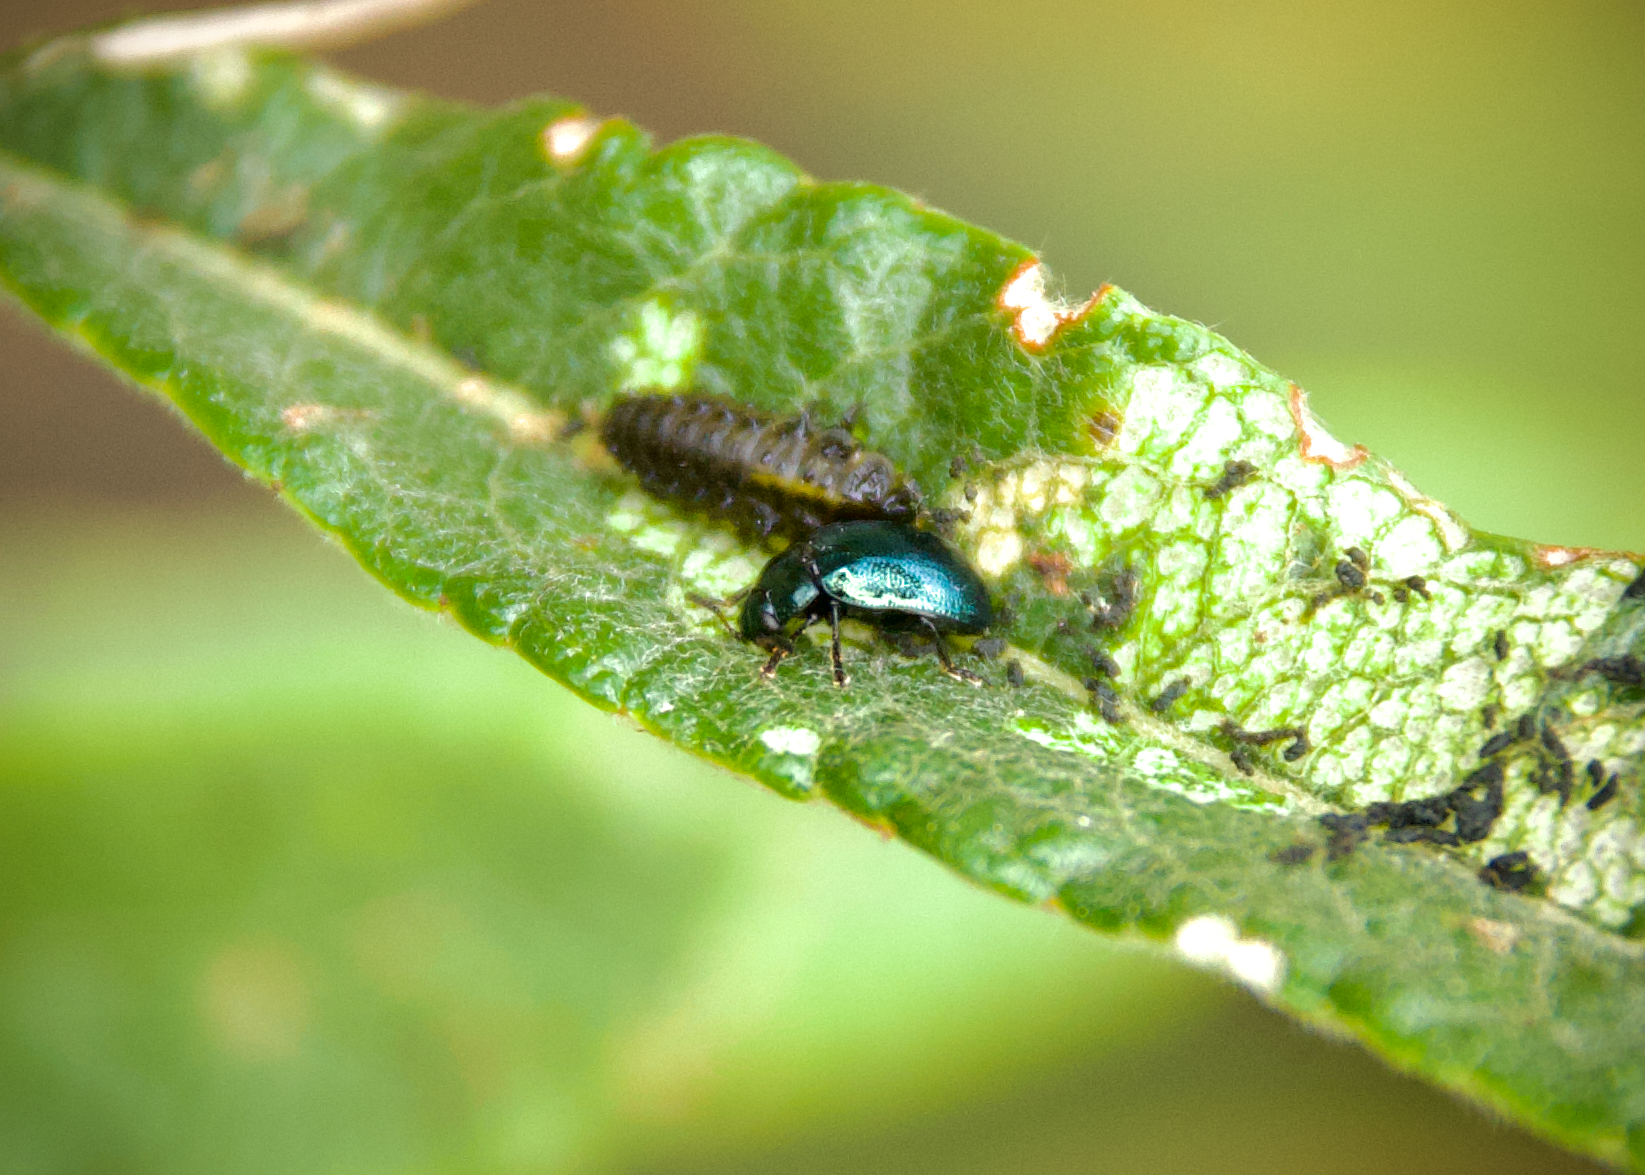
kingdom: Animalia
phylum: Arthropoda
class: Insecta
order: Coleoptera
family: Chrysomelidae
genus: Plagiodera
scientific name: Plagiodera versicolora
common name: Imported willow leaf beetle
